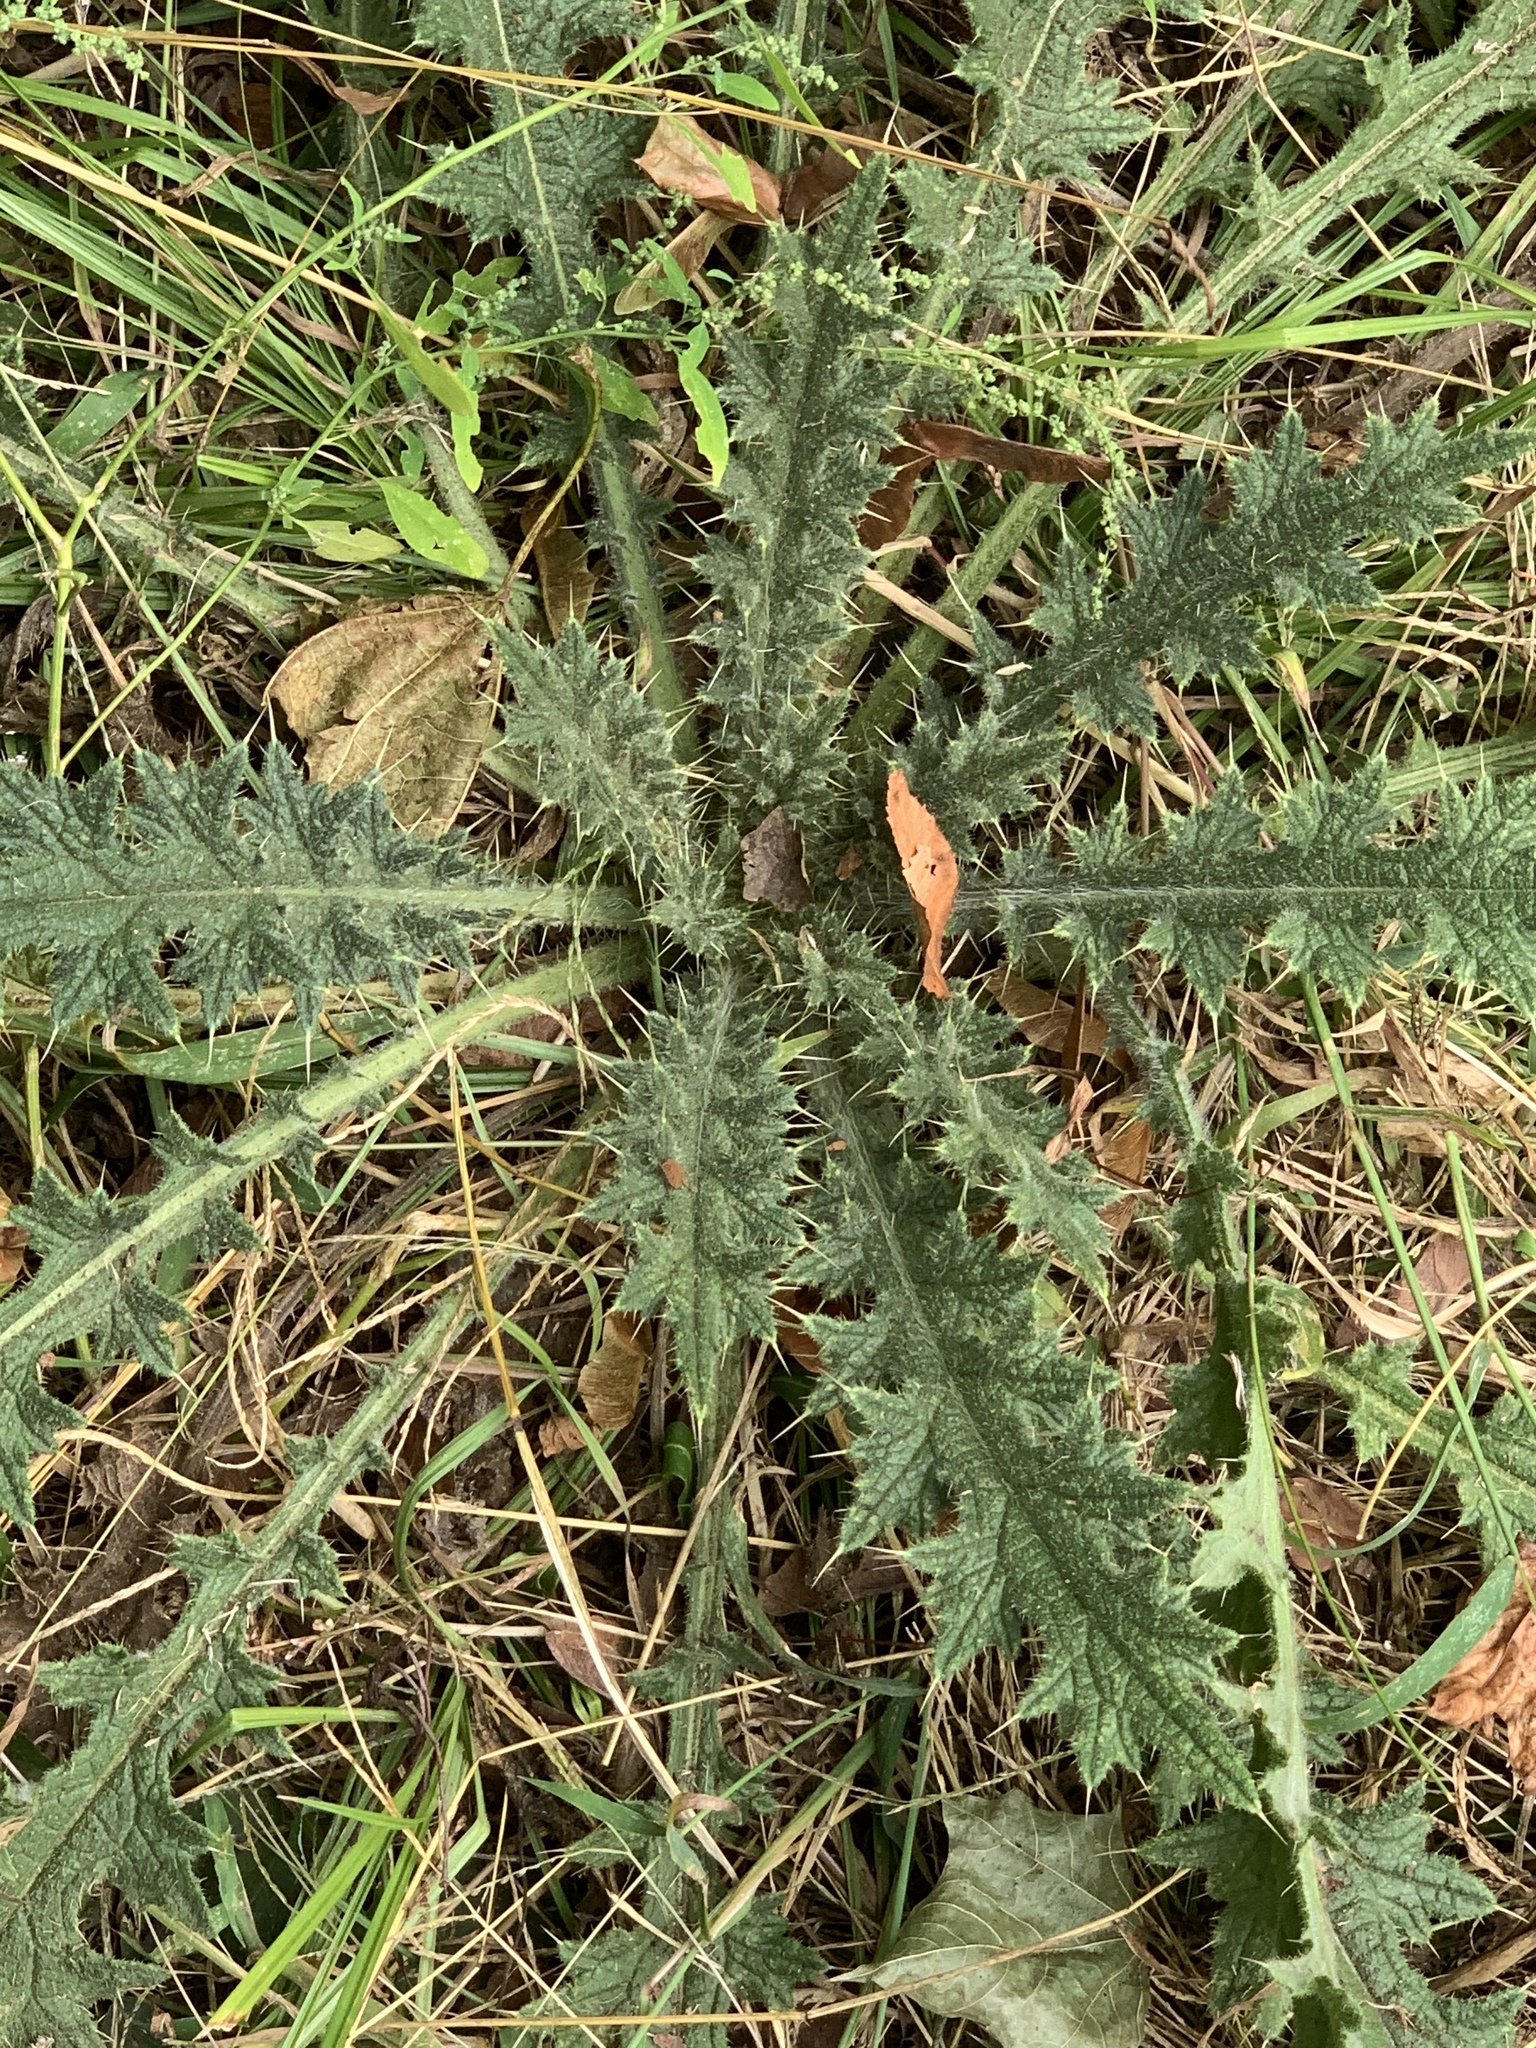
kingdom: Plantae
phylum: Tracheophyta
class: Magnoliopsida
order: Asterales
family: Asteraceae
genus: Cirsium
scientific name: Cirsium vulgare
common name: Bull thistle
